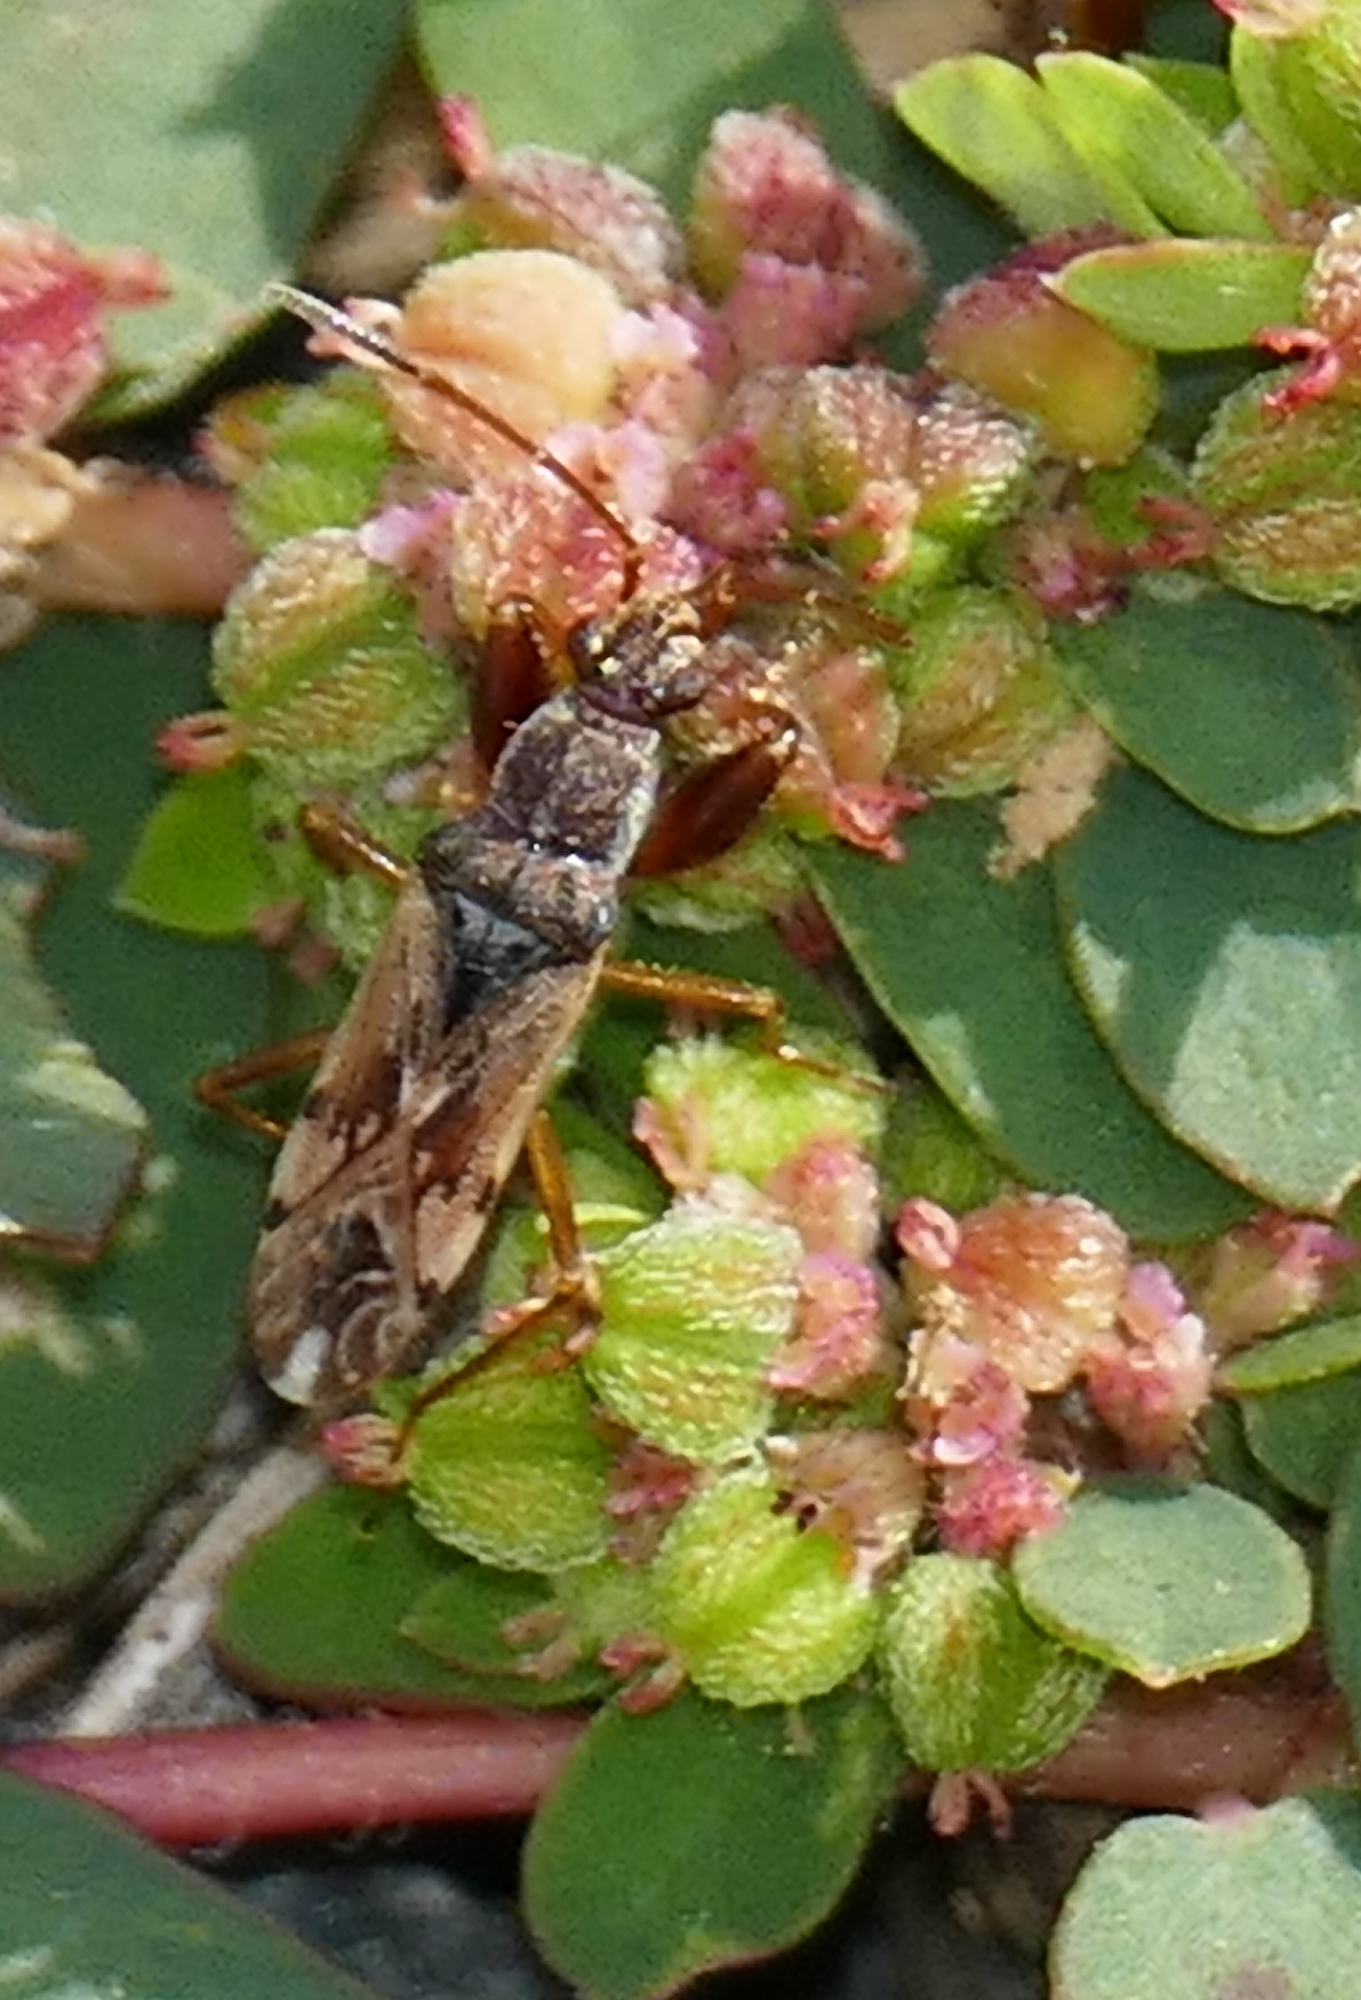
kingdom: Animalia
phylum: Arthropoda
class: Insecta
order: Hemiptera
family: Rhyparochromidae
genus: Neopamera
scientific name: Neopamera bilobata
